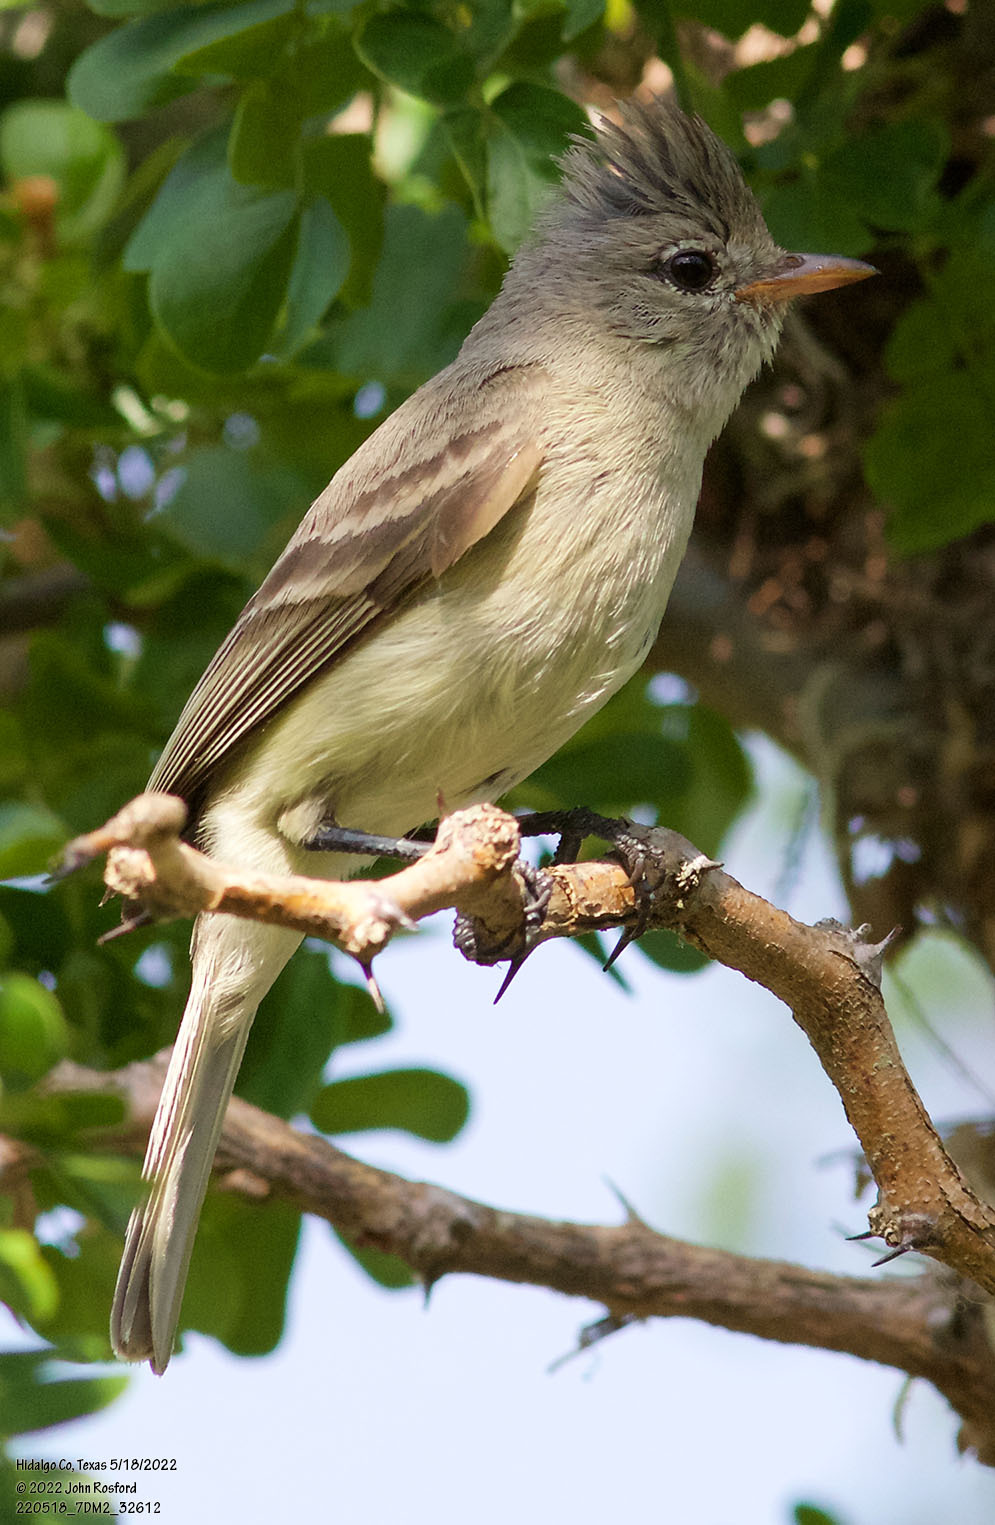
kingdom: Animalia
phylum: Chordata
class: Aves
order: Passeriformes
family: Tyrannidae
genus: Camptostoma
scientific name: Camptostoma imberbe
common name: Northern beardless-tyrannulet
